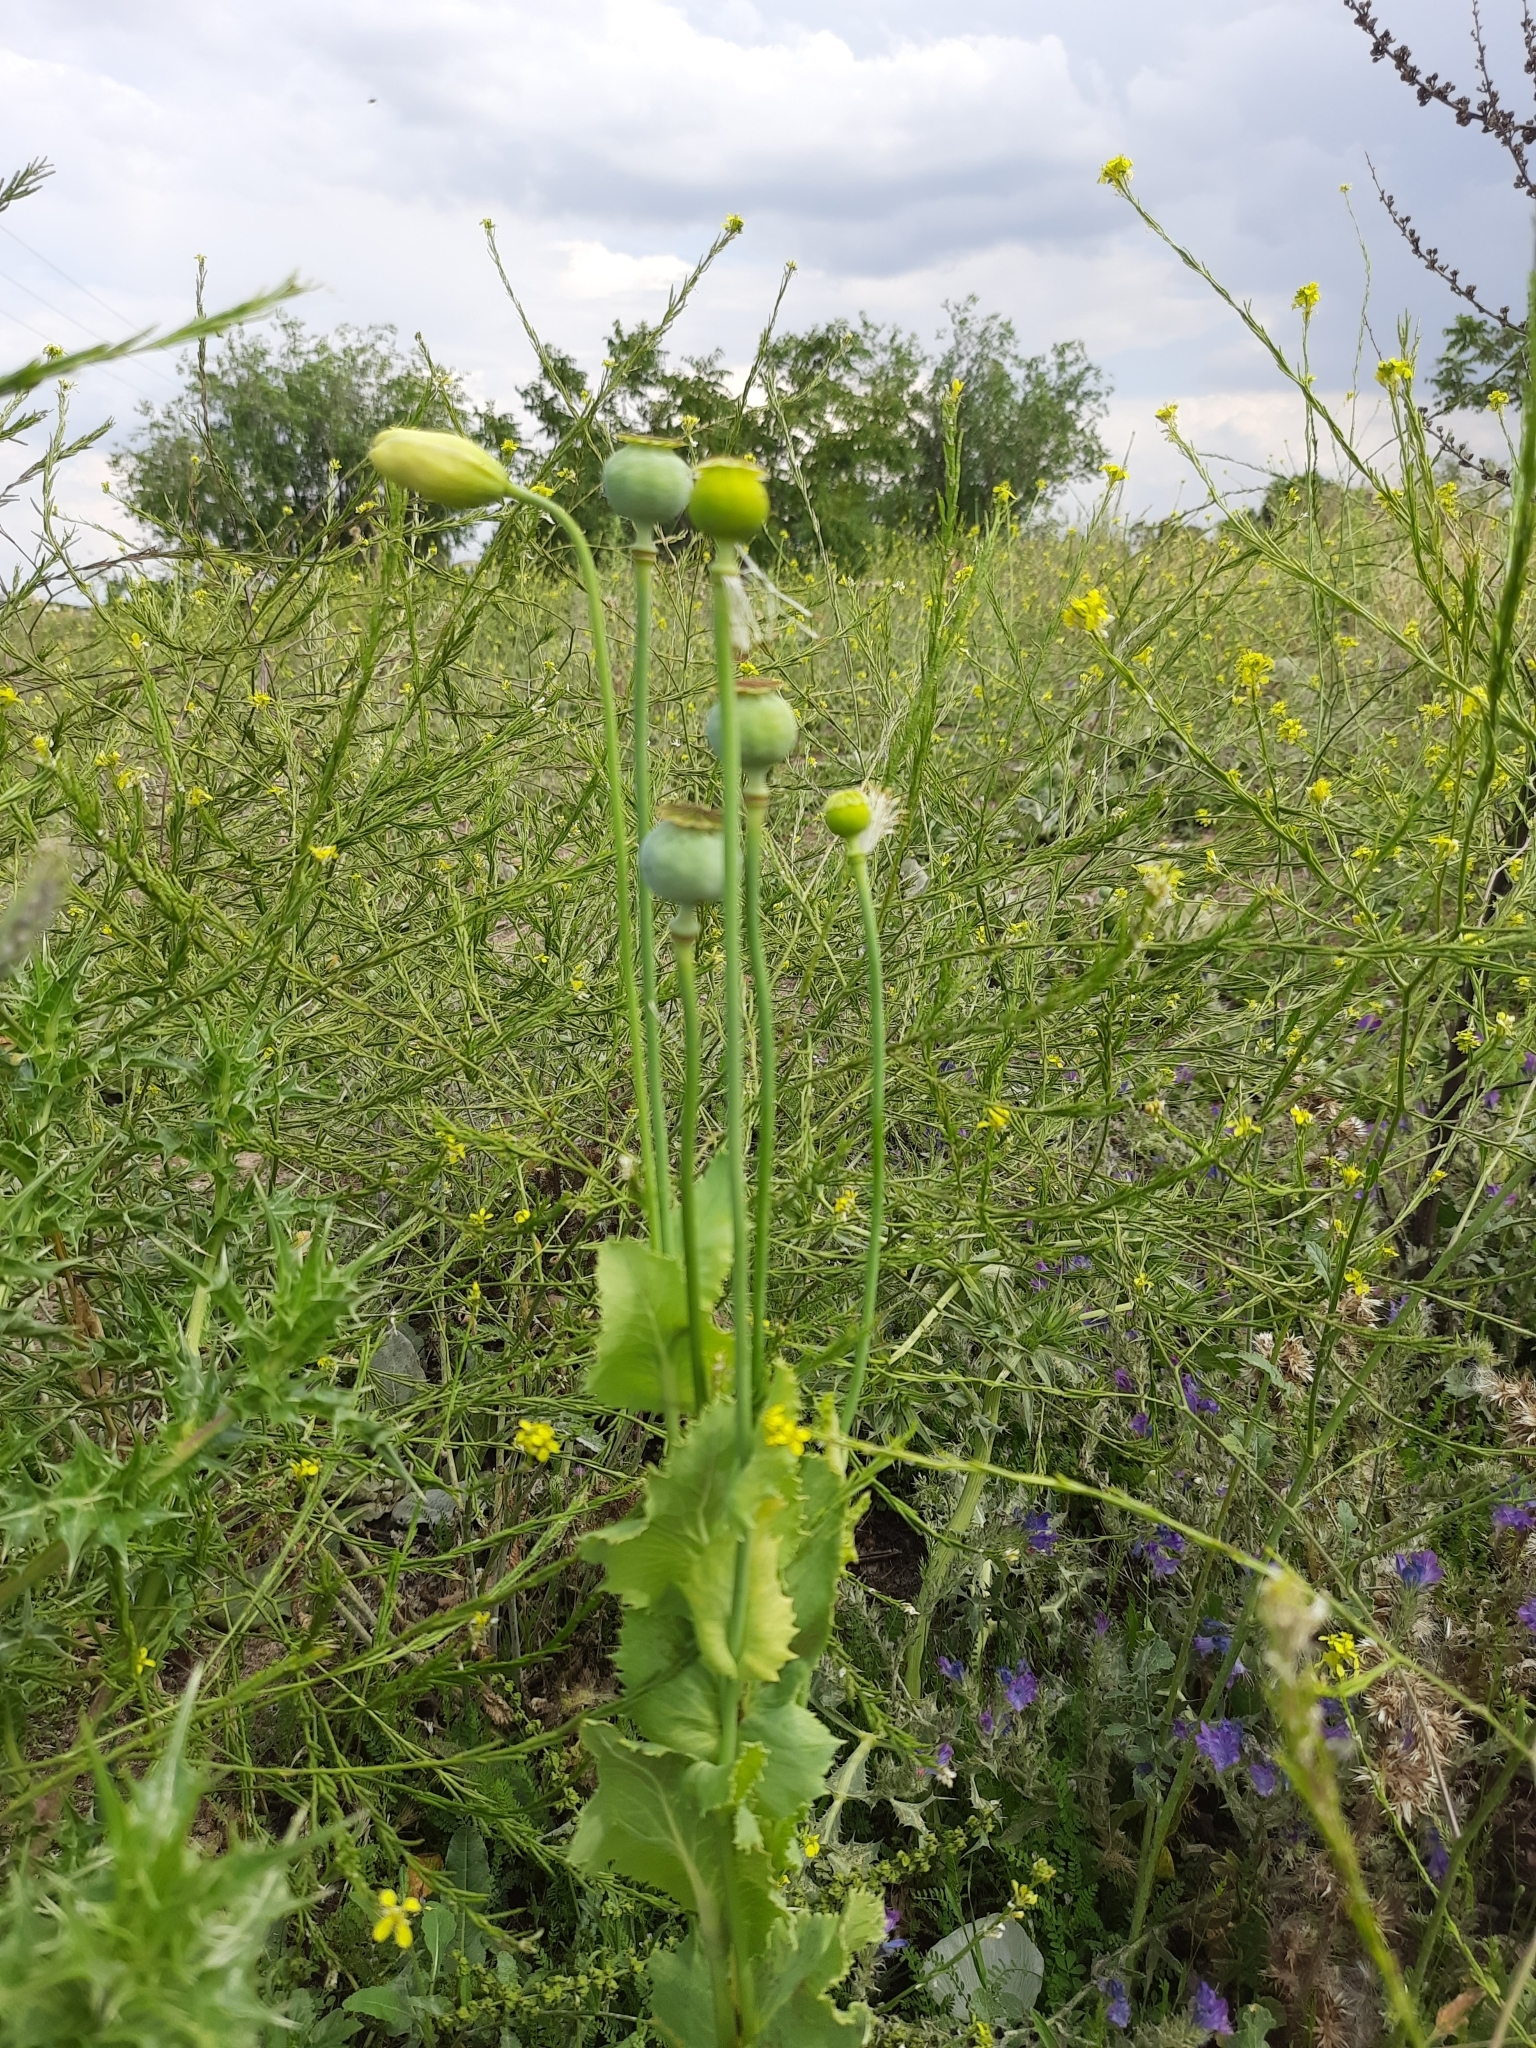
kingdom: Plantae
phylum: Tracheophyta
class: Magnoliopsida
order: Ranunculales
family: Papaveraceae
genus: Papaver
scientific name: Papaver somniferum
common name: Opium poppy
